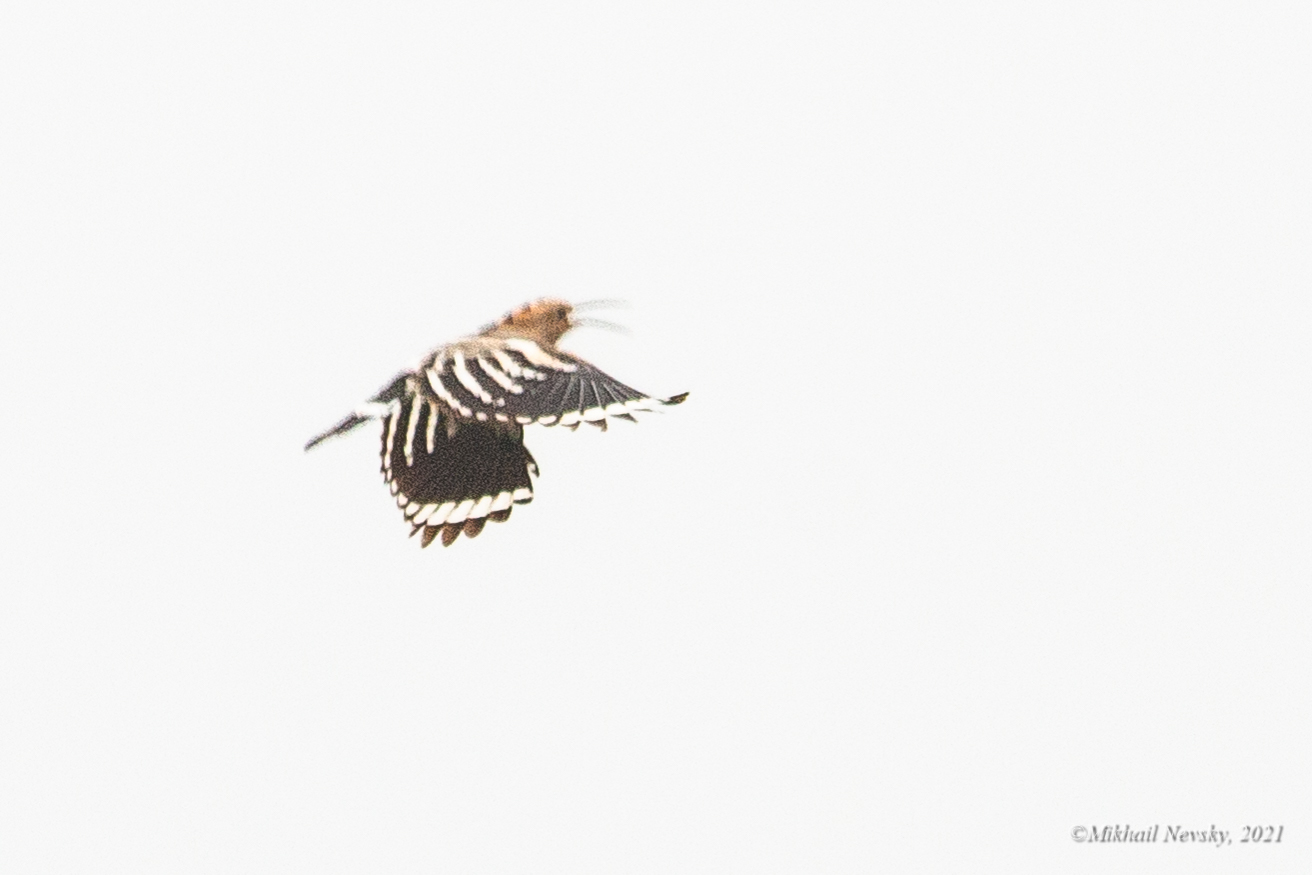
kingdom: Animalia
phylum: Chordata
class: Aves
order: Bucerotiformes
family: Upupidae
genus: Upupa
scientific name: Upupa epops
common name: Eurasian hoopoe
